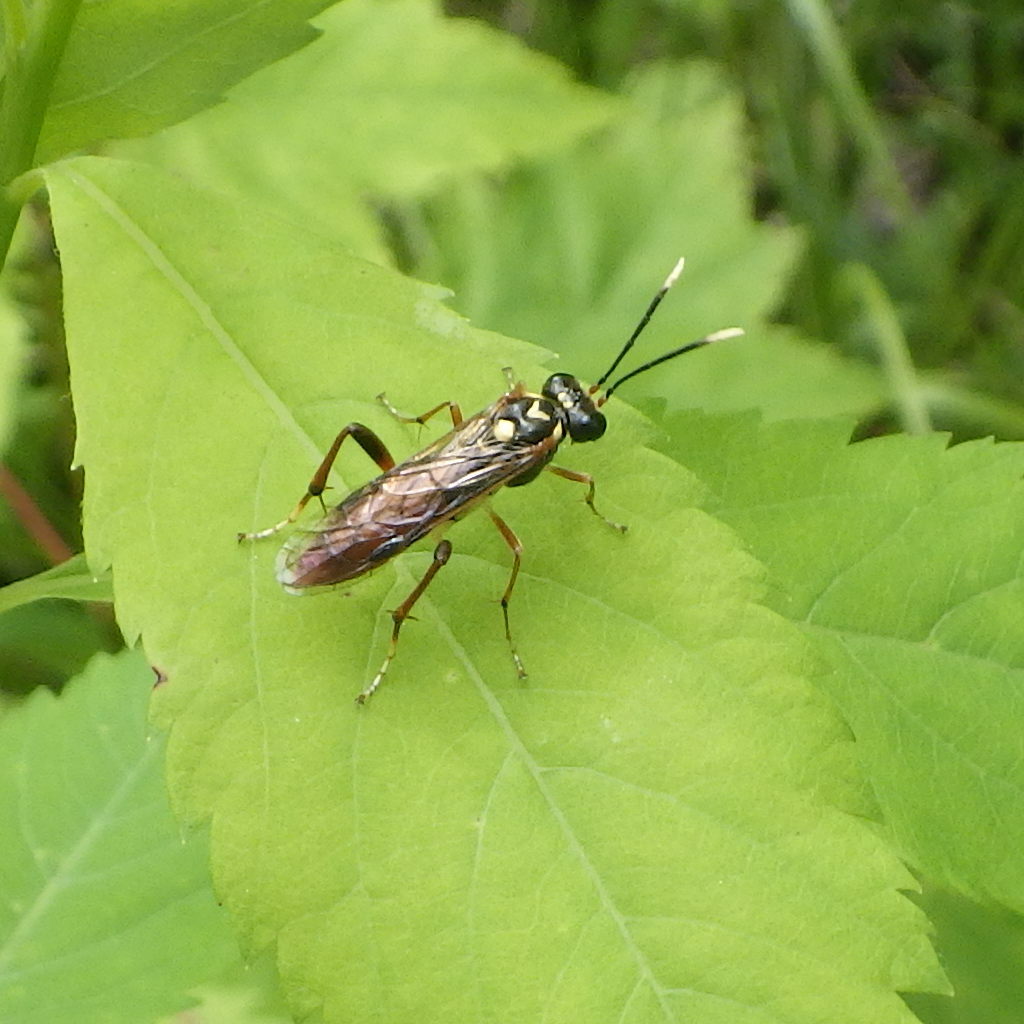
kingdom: Animalia
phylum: Arthropoda
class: Insecta
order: Hymenoptera
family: Tenthredinidae
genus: Macrophya
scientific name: Macrophya varia
